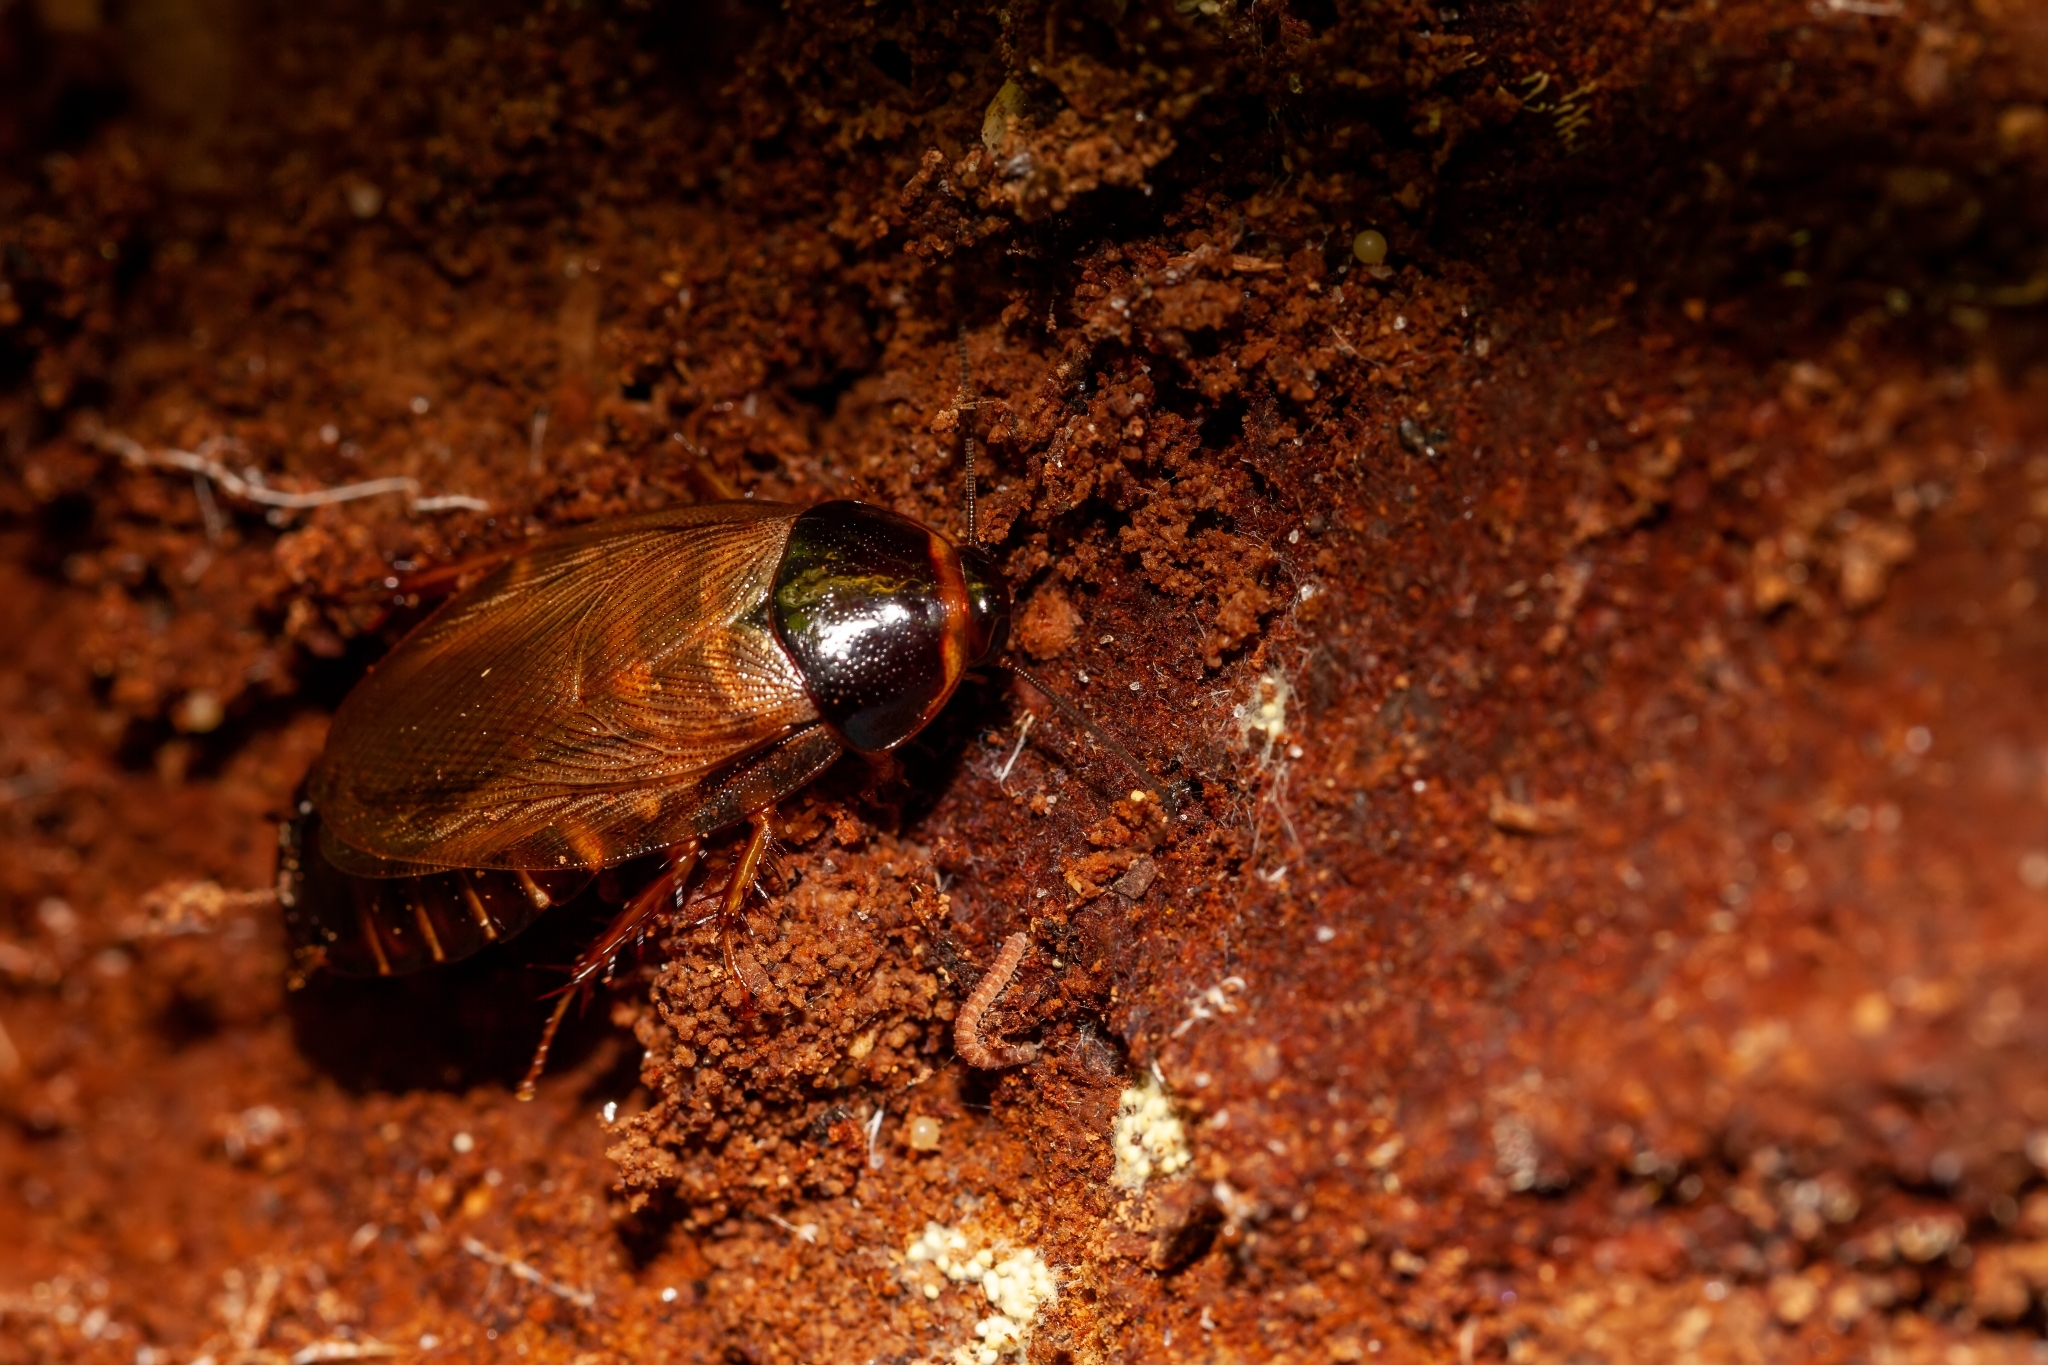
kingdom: Animalia
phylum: Arthropoda
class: Insecta
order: Blattodea
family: Blaberidae
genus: Pycnoscelus
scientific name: Pycnoscelus surinamensis
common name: Surinam cockroach
